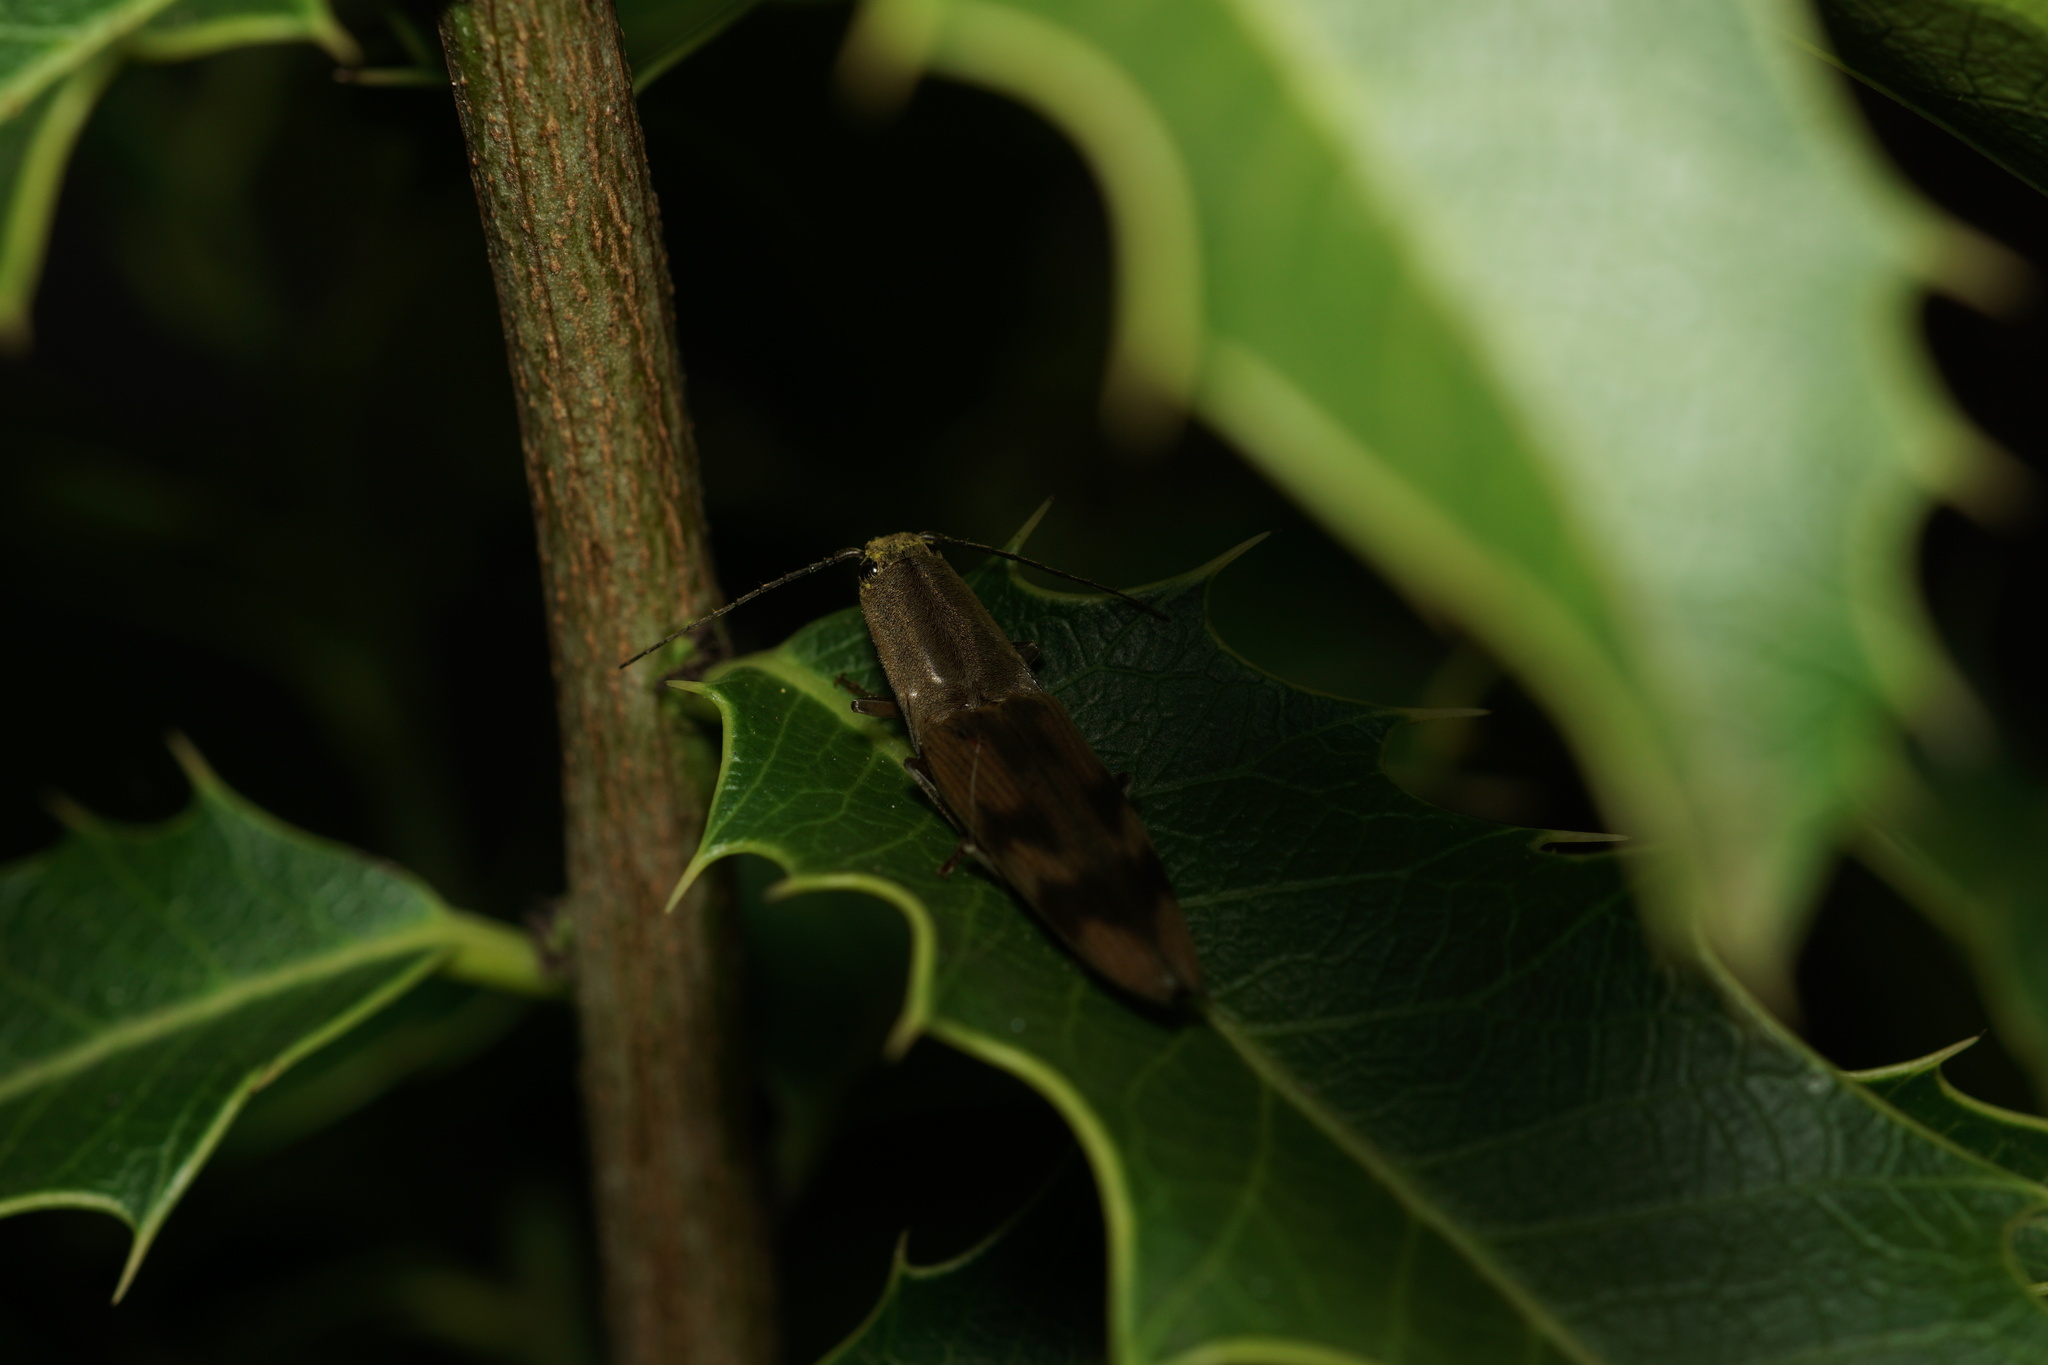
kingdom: Animalia
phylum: Arthropoda
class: Insecta
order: Coleoptera
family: Elateridae
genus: Monocrepidius
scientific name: Monocrepidius
